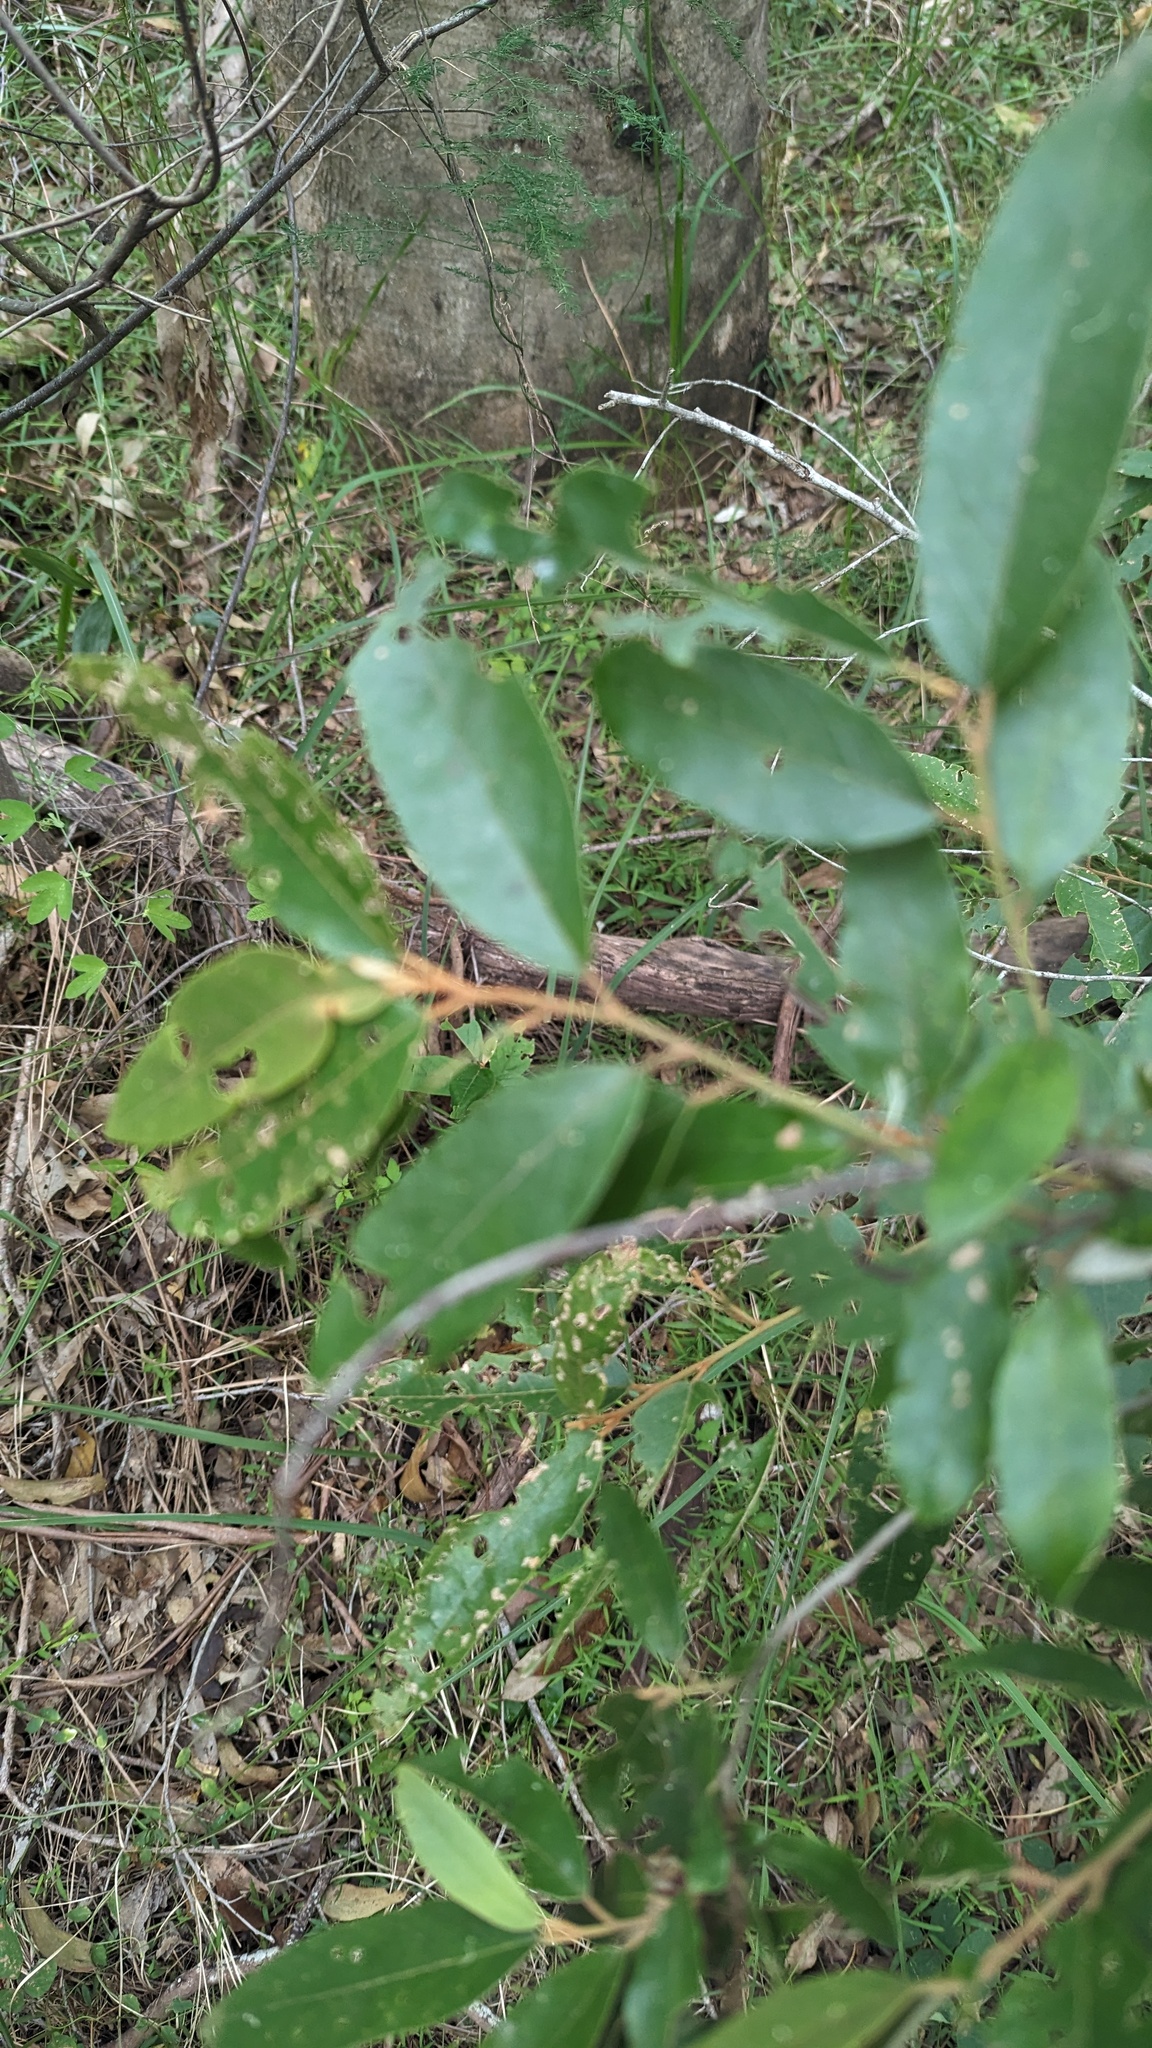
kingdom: Plantae
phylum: Tracheophyta
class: Magnoliopsida
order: Rosales
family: Rhamnaceae
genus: Alphitonia
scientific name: Alphitonia excelsa
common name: Red ash
